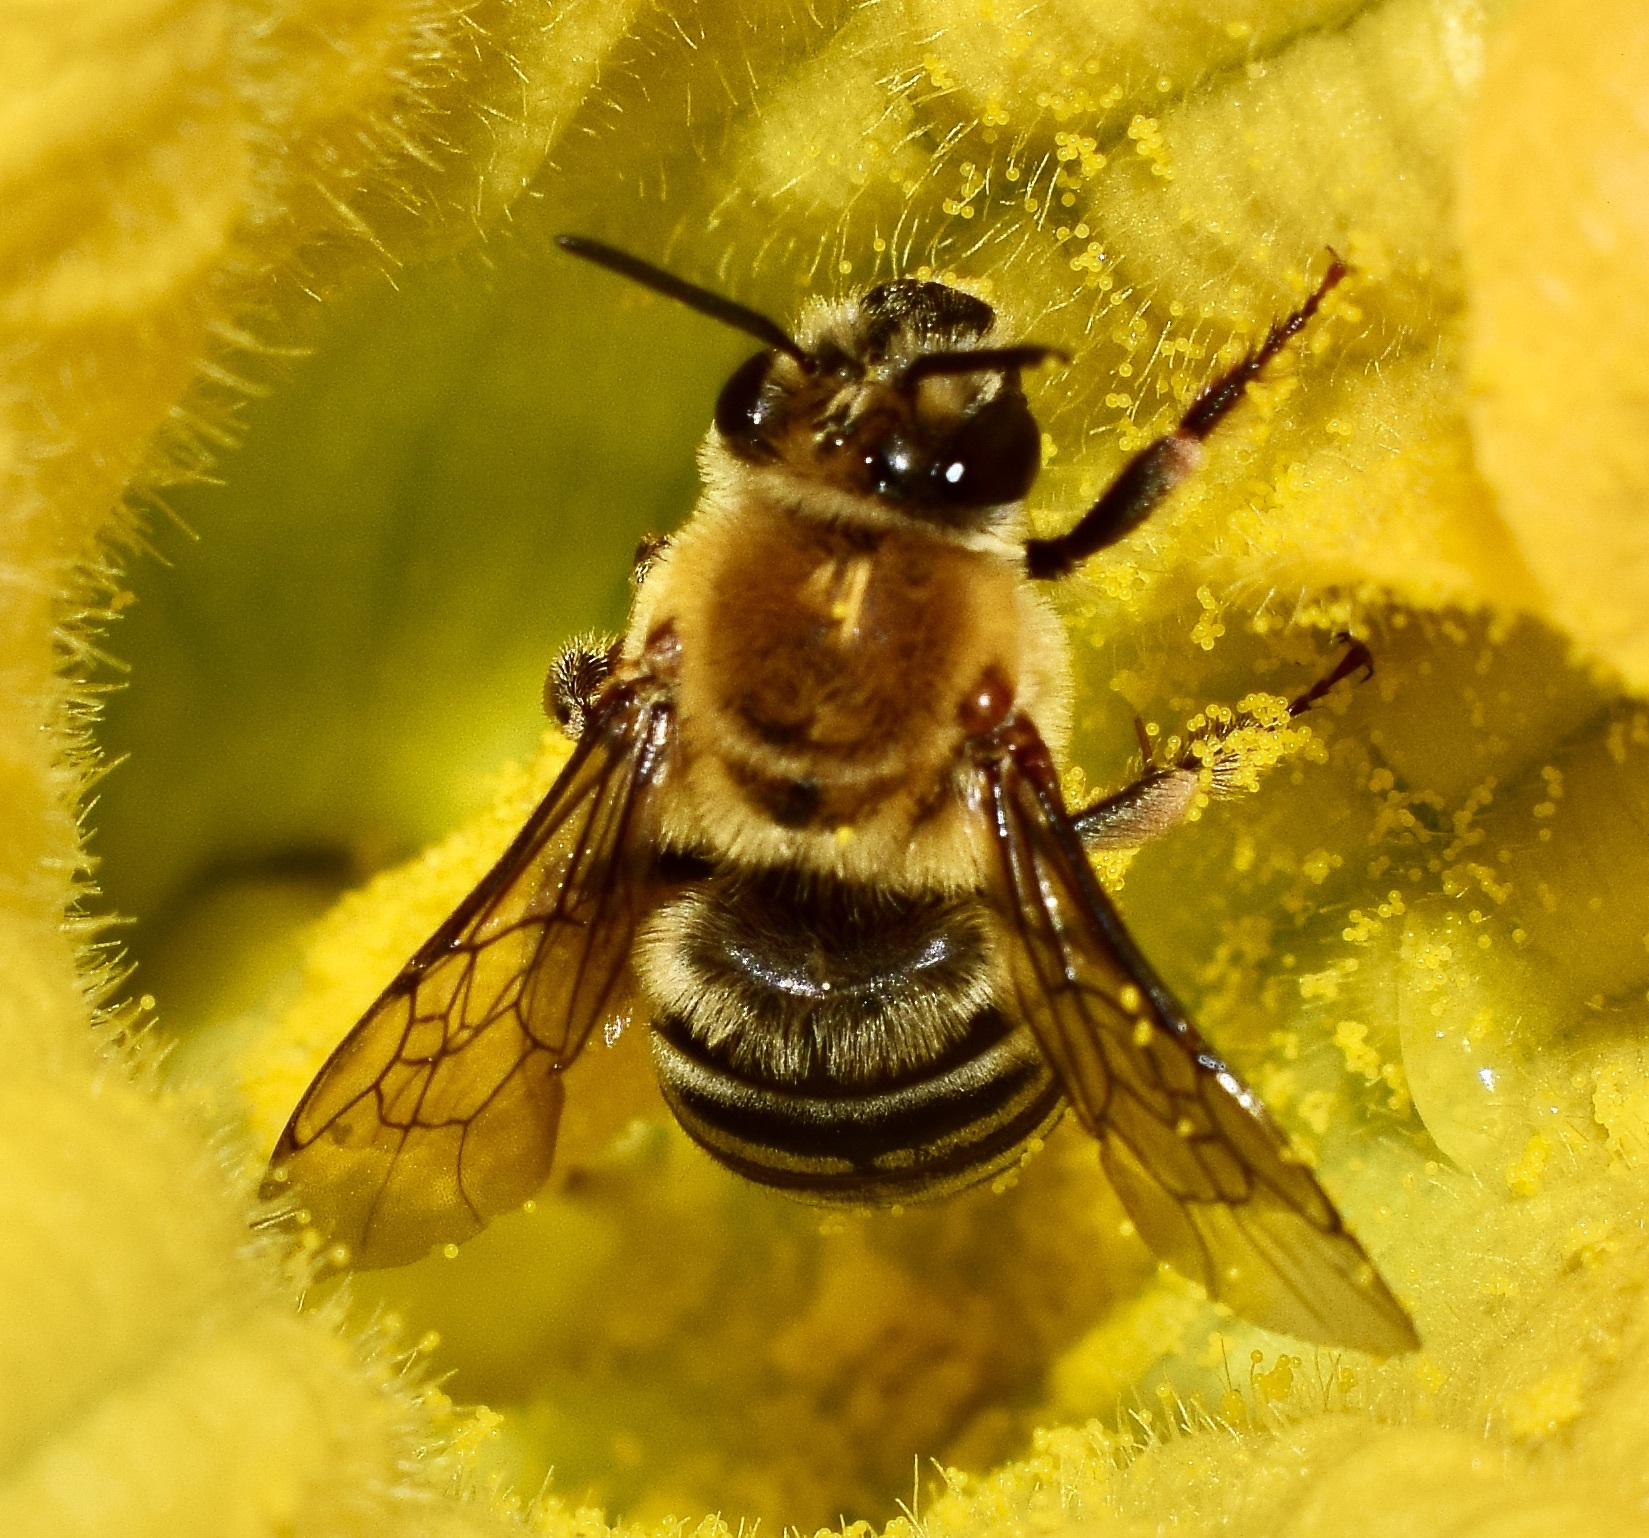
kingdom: Animalia
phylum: Arthropoda
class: Insecta
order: Hymenoptera
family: Apidae
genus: Peponapis
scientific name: Peponapis pruinosa
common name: Pruinose squash bee
